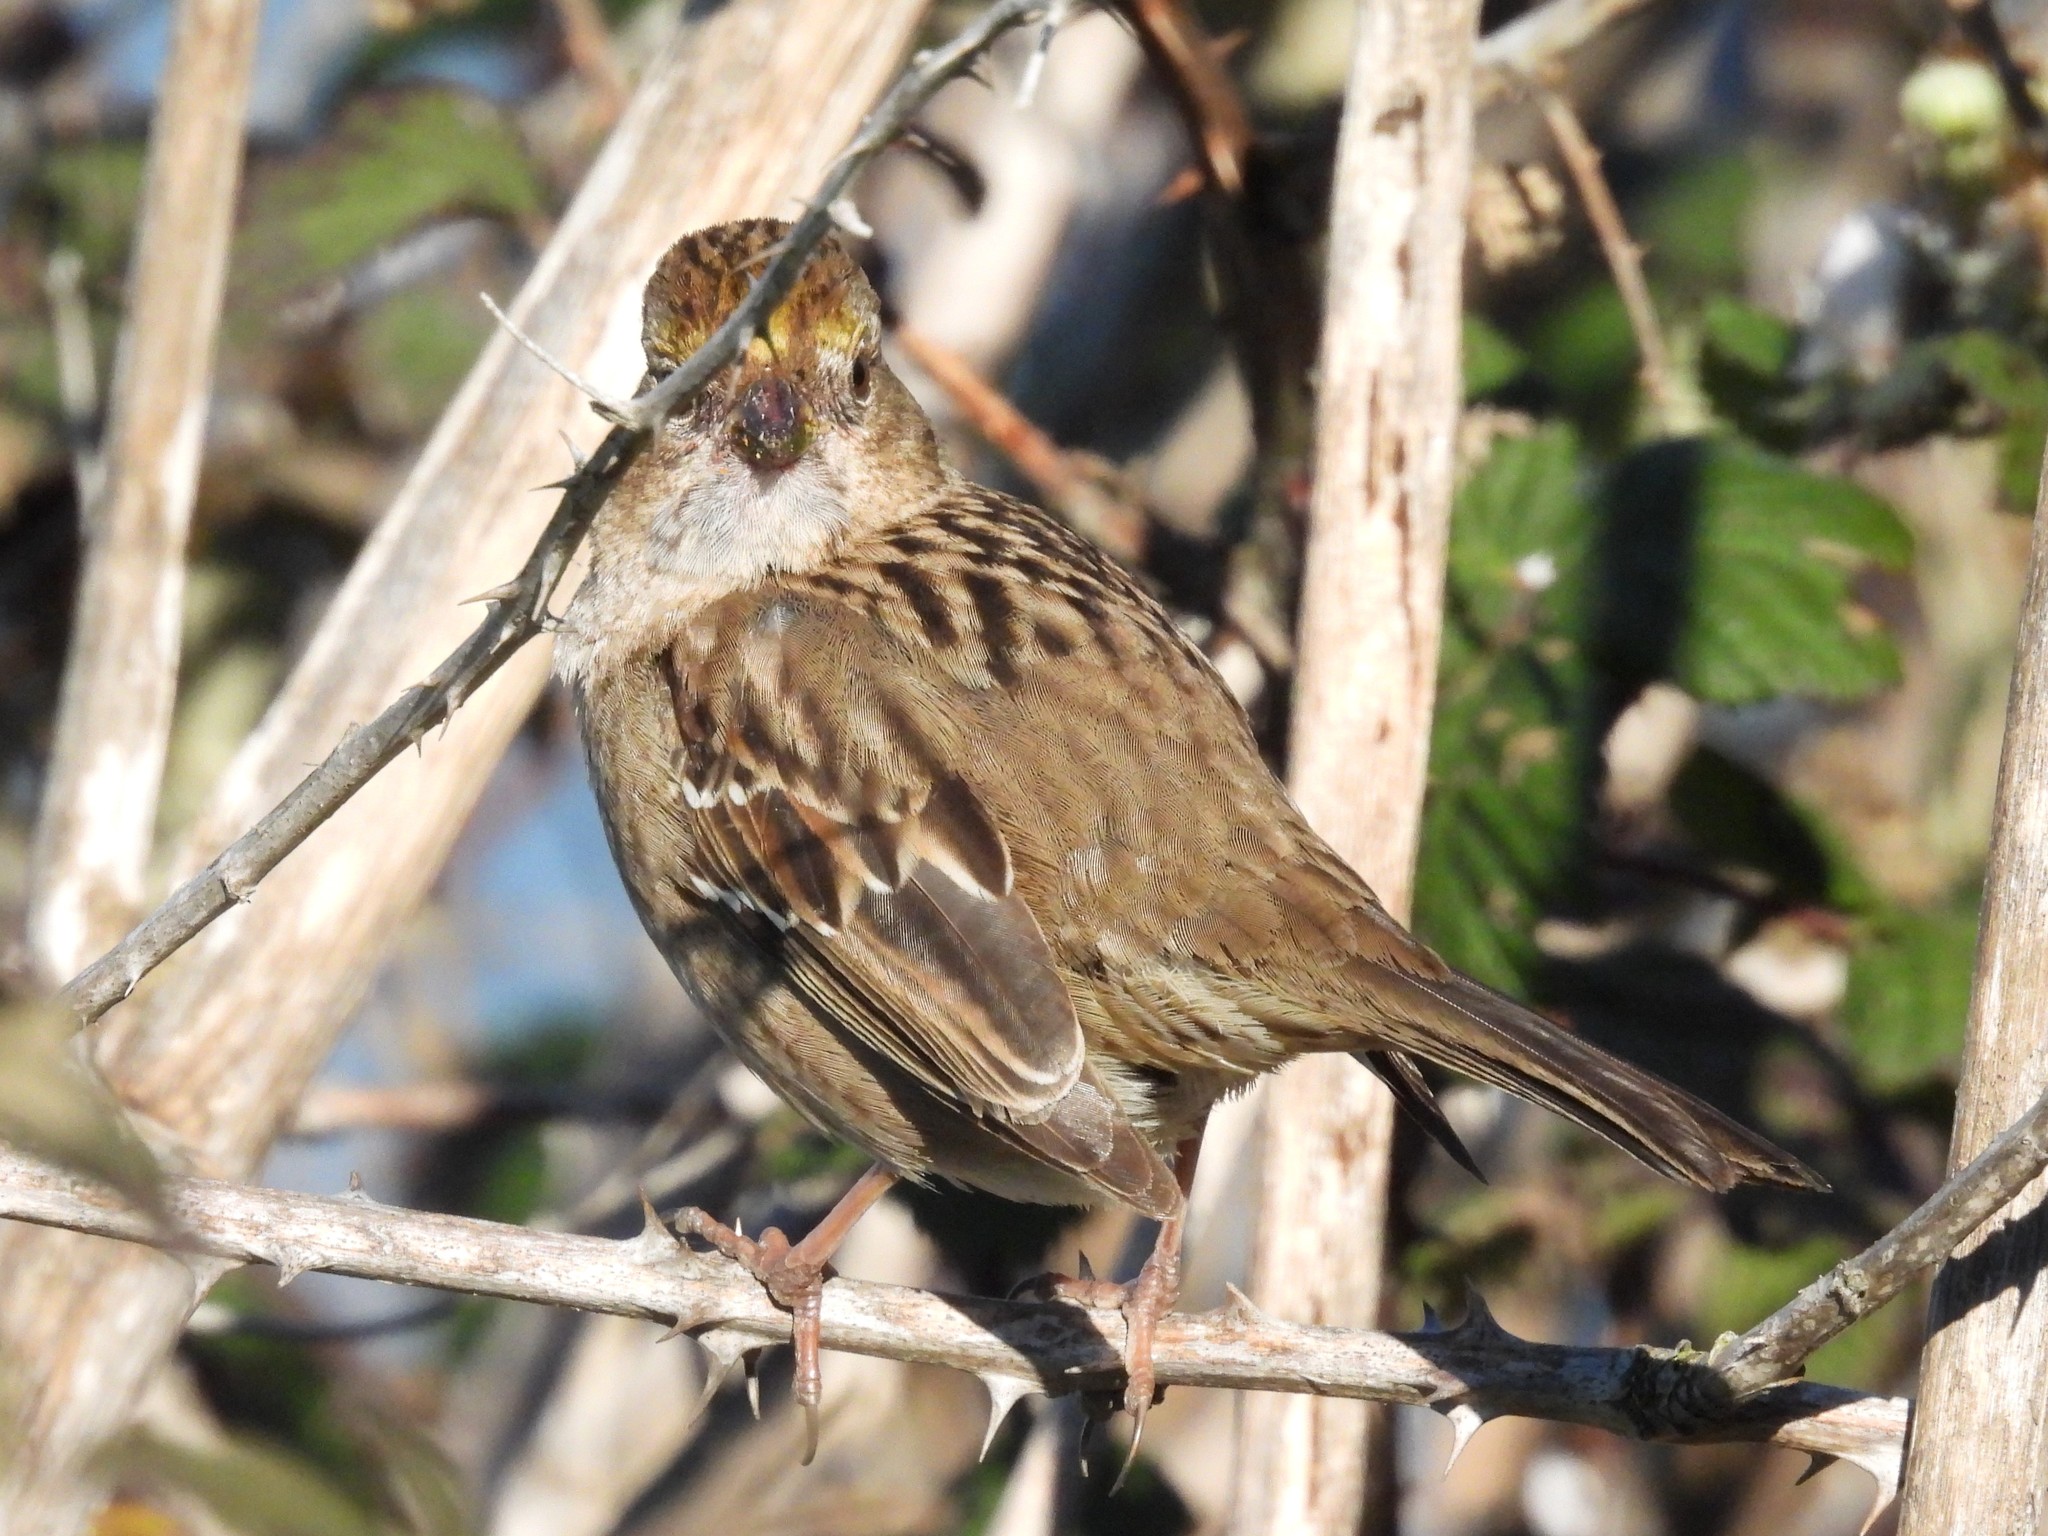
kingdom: Animalia
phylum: Chordata
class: Aves
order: Passeriformes
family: Passerellidae
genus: Zonotrichia
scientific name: Zonotrichia atricapilla
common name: Golden-crowned sparrow
